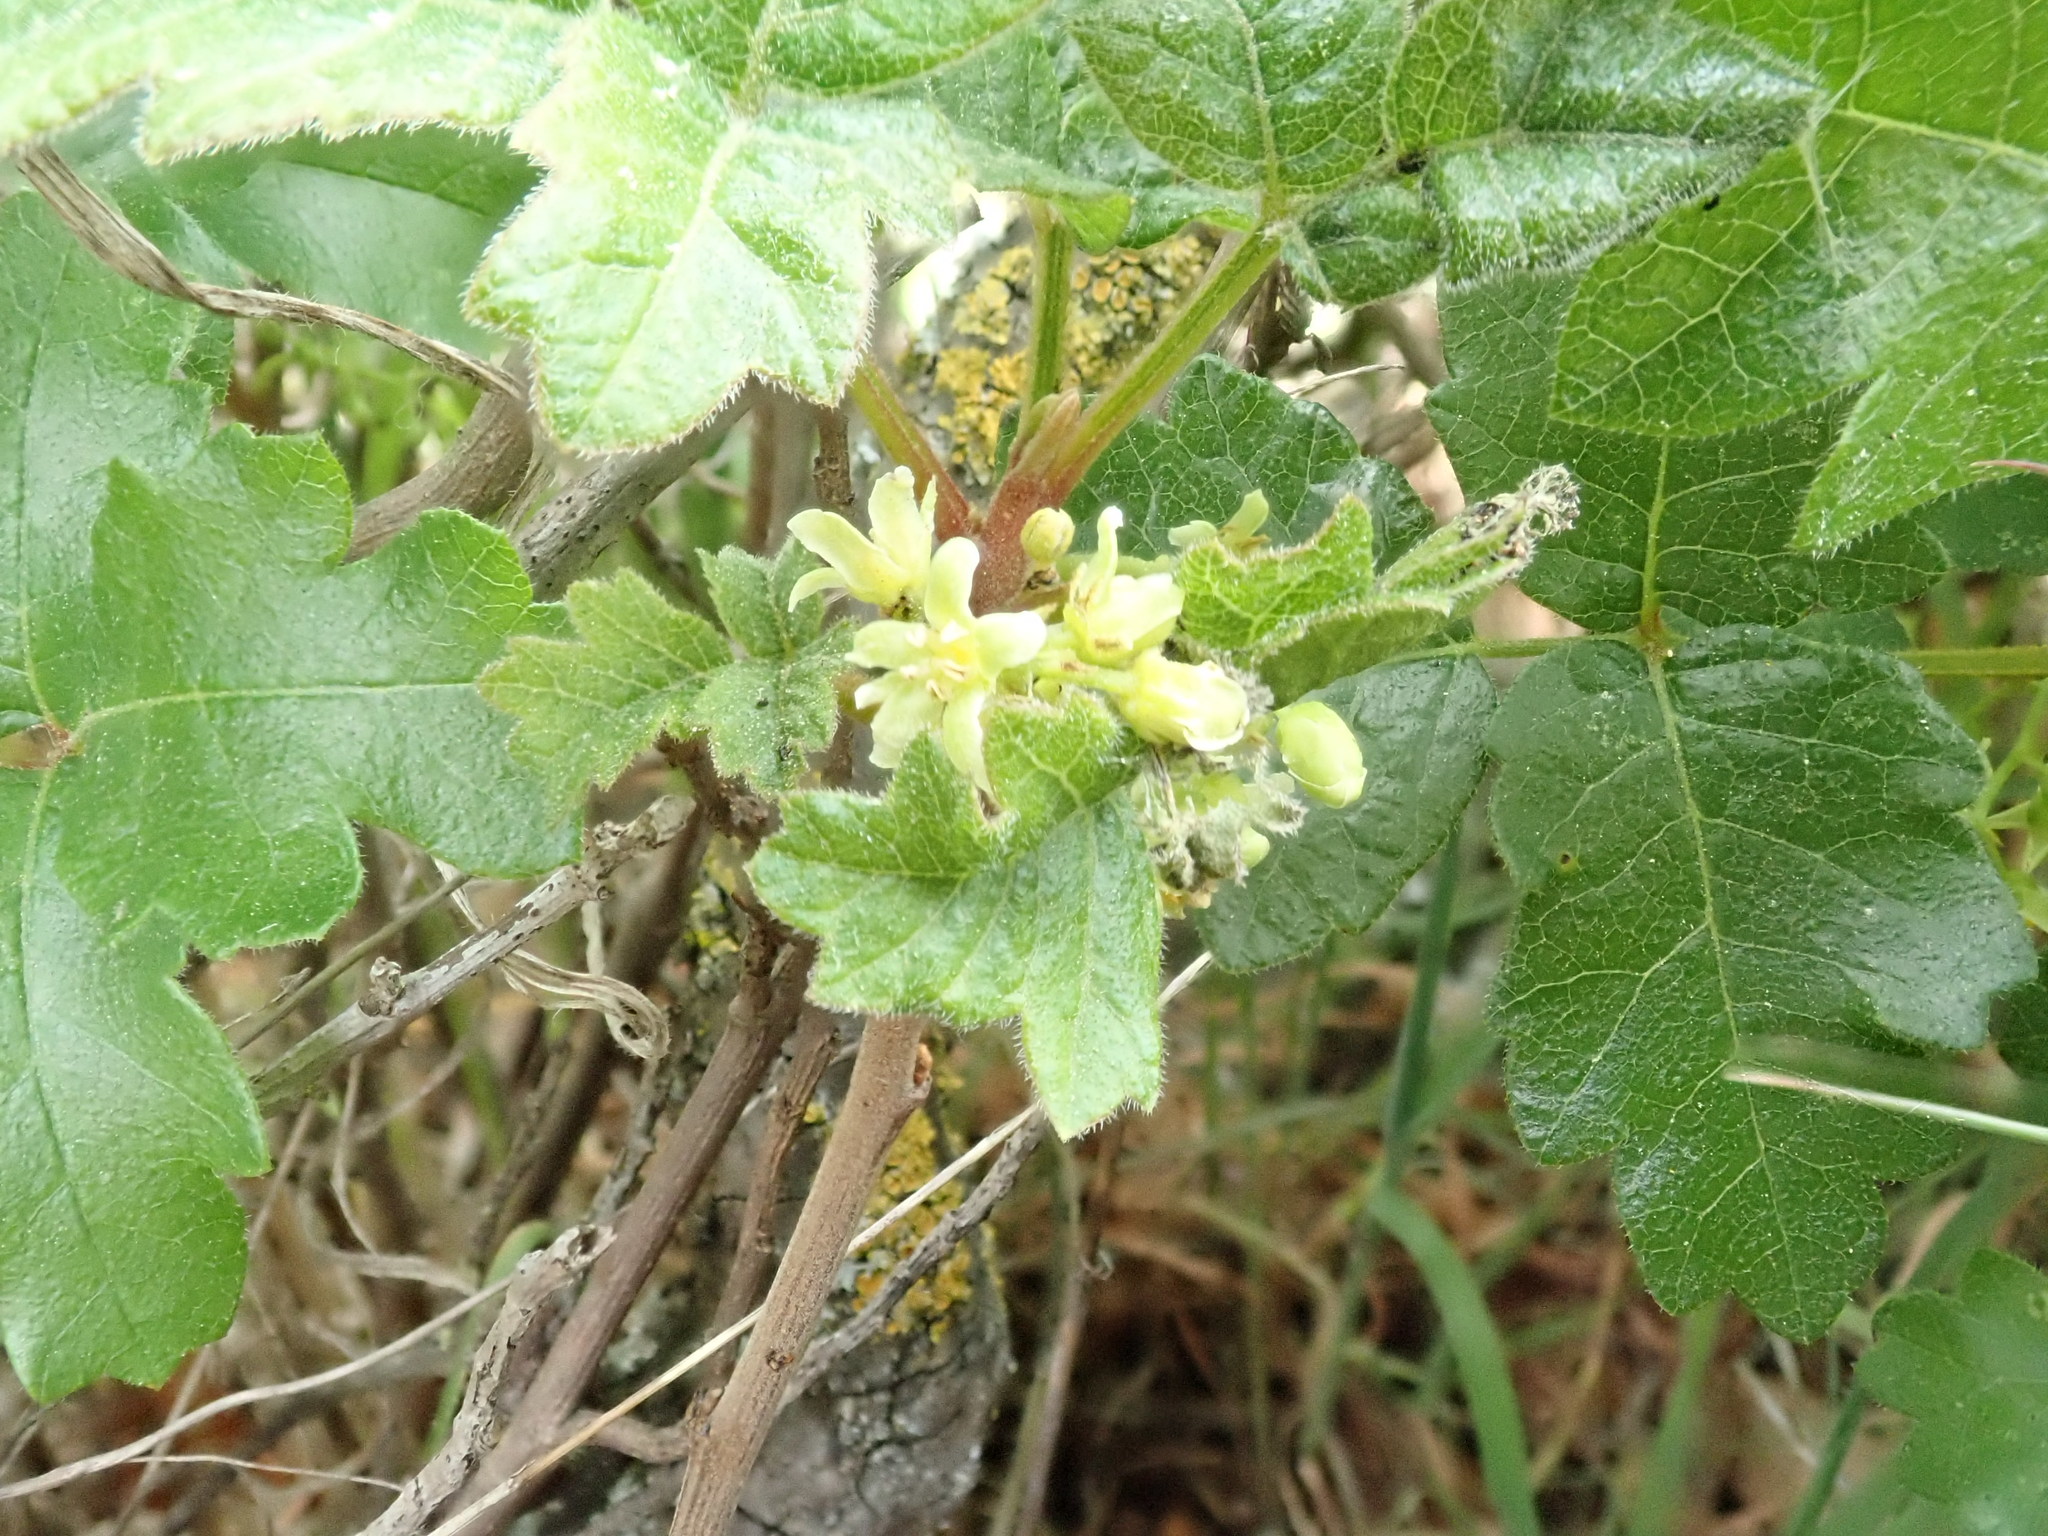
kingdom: Plantae
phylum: Tracheophyta
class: Magnoliopsida
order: Sapindales
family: Anacardiaceae
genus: Toxicodendron
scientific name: Toxicodendron diversilobum
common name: Pacific poison-oak
